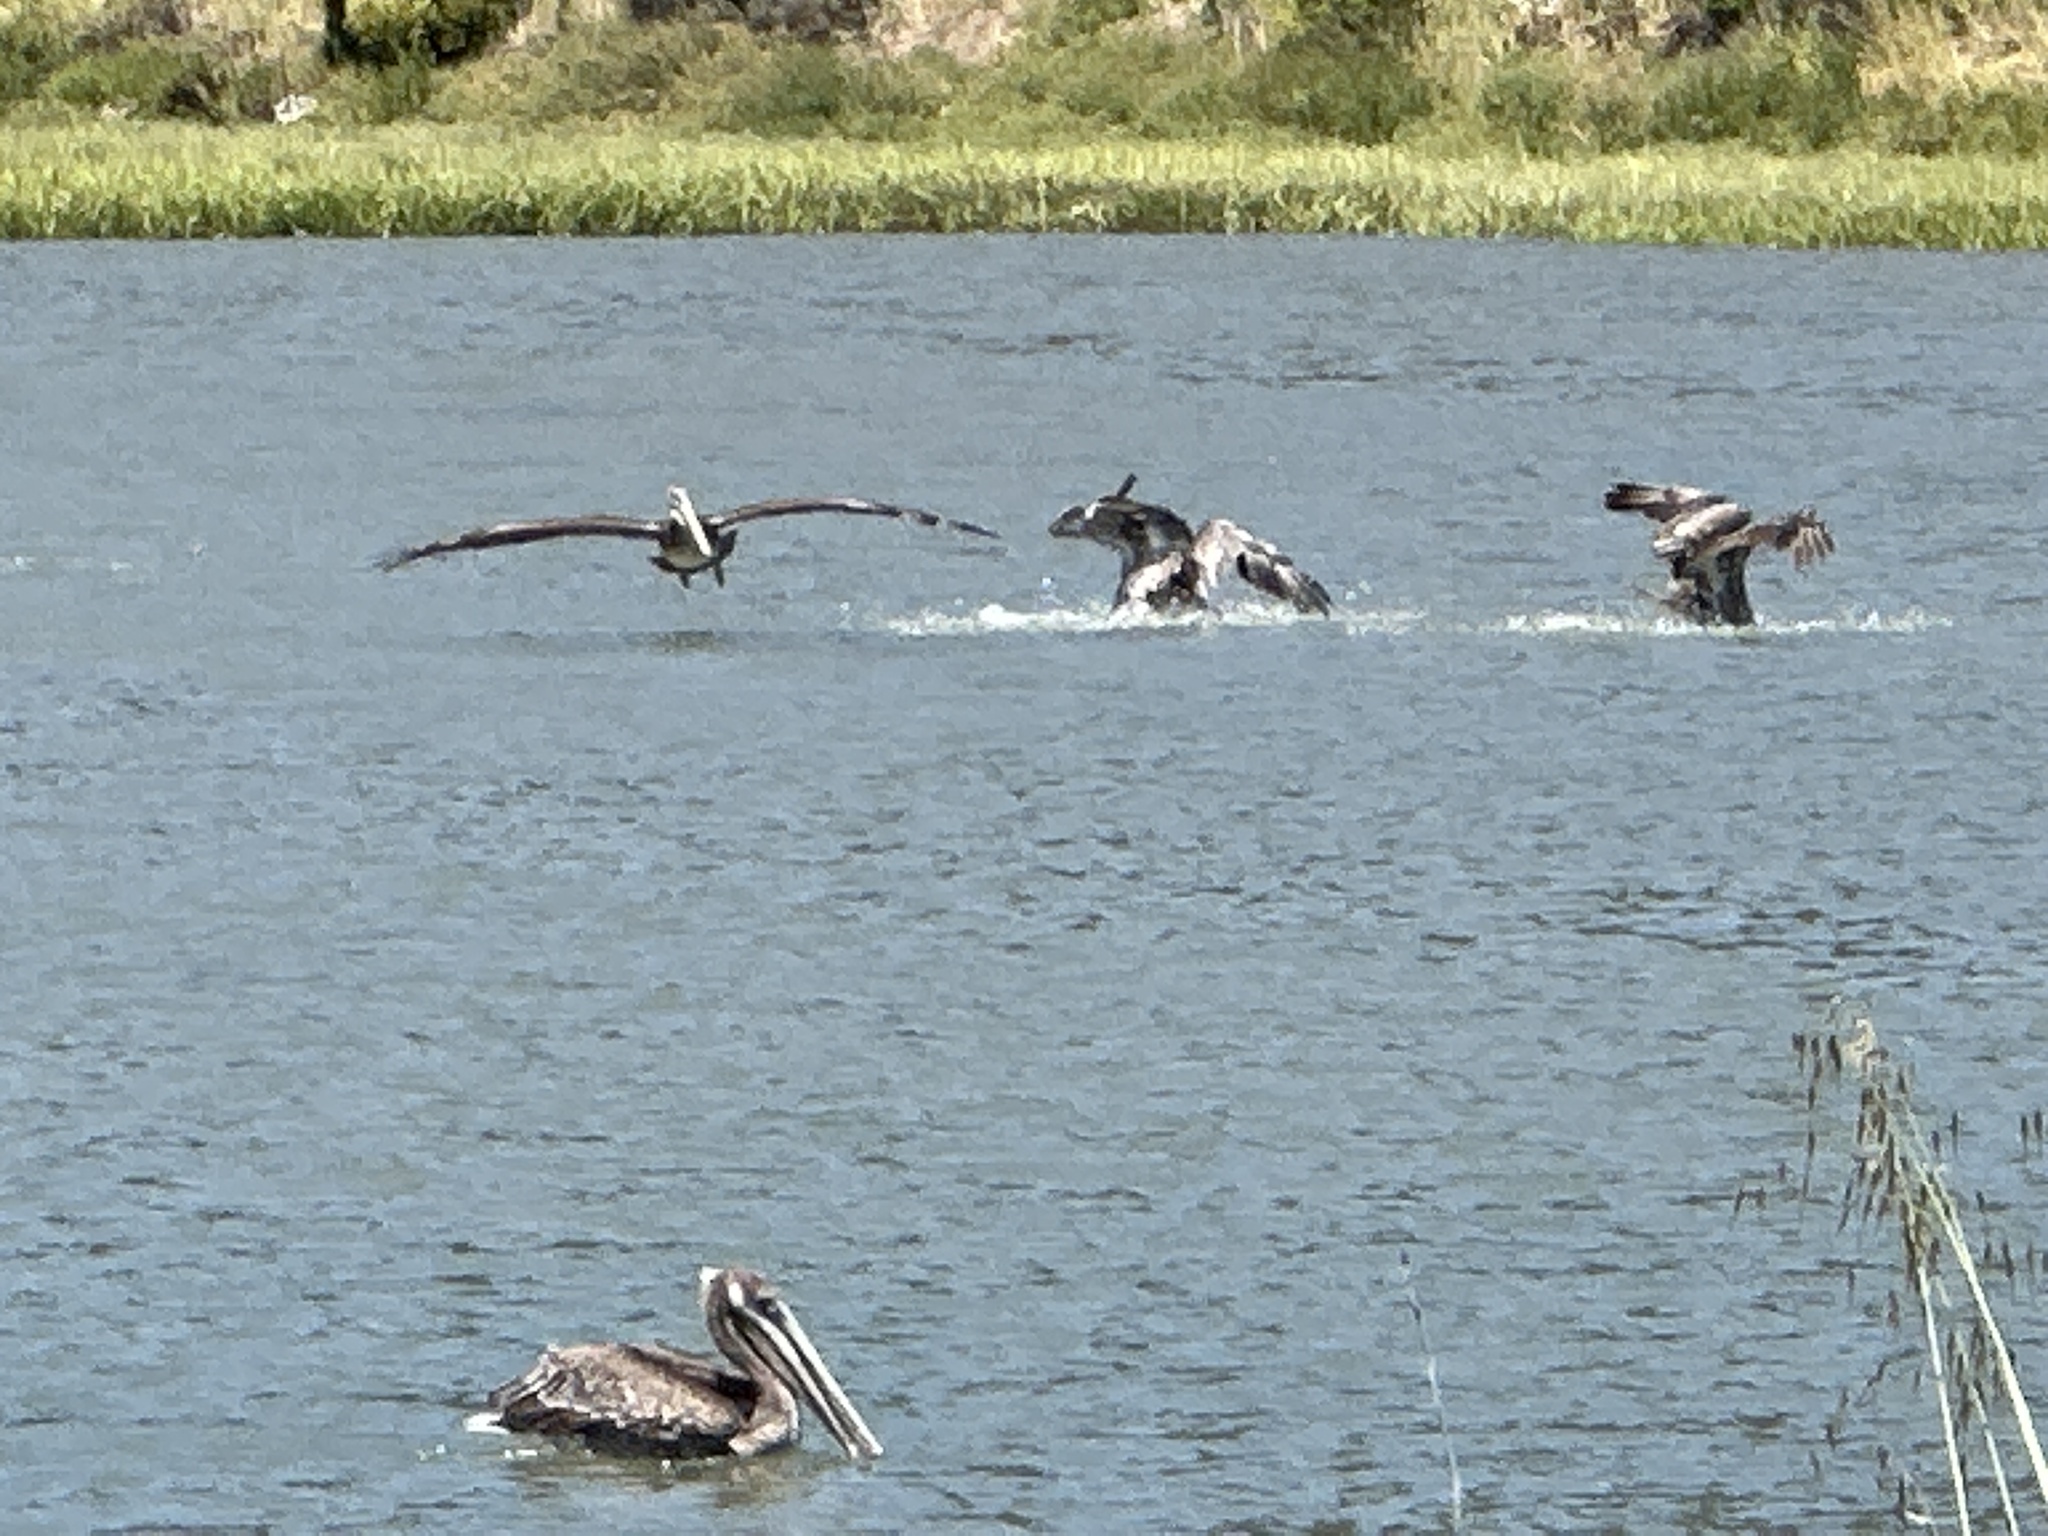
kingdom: Animalia
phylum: Chordata
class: Aves
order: Pelecaniformes
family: Pelecanidae
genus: Pelecanus
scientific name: Pelecanus occidentalis
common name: Brown pelican
